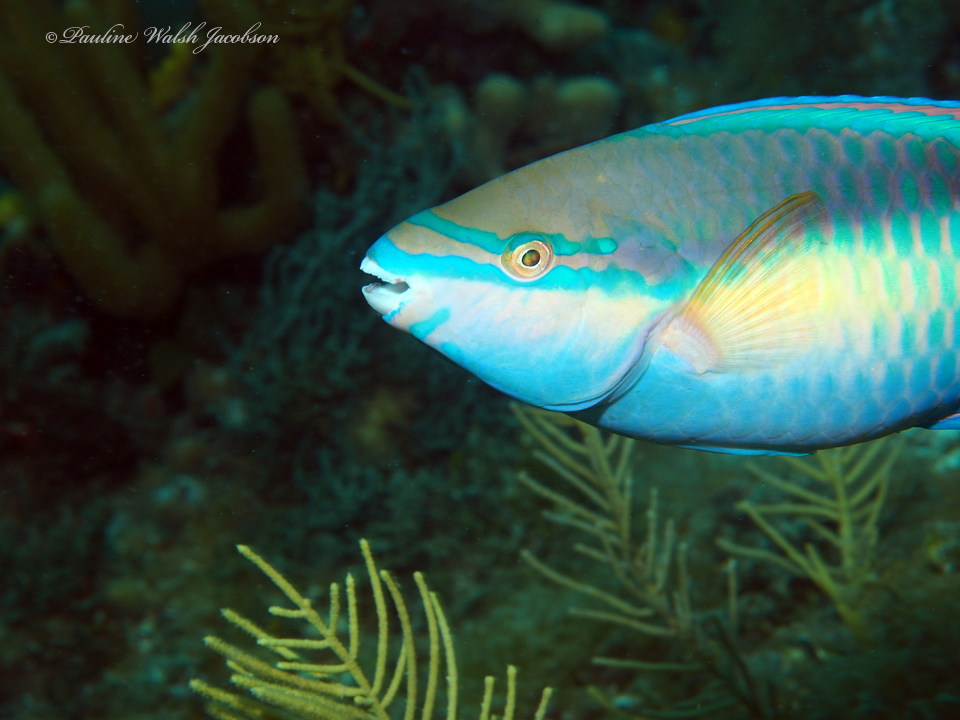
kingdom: Animalia
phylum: Chordata
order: Perciformes
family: Scaridae
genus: Scarus
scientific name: Scarus taeniopterus
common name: Princess parrotfish
